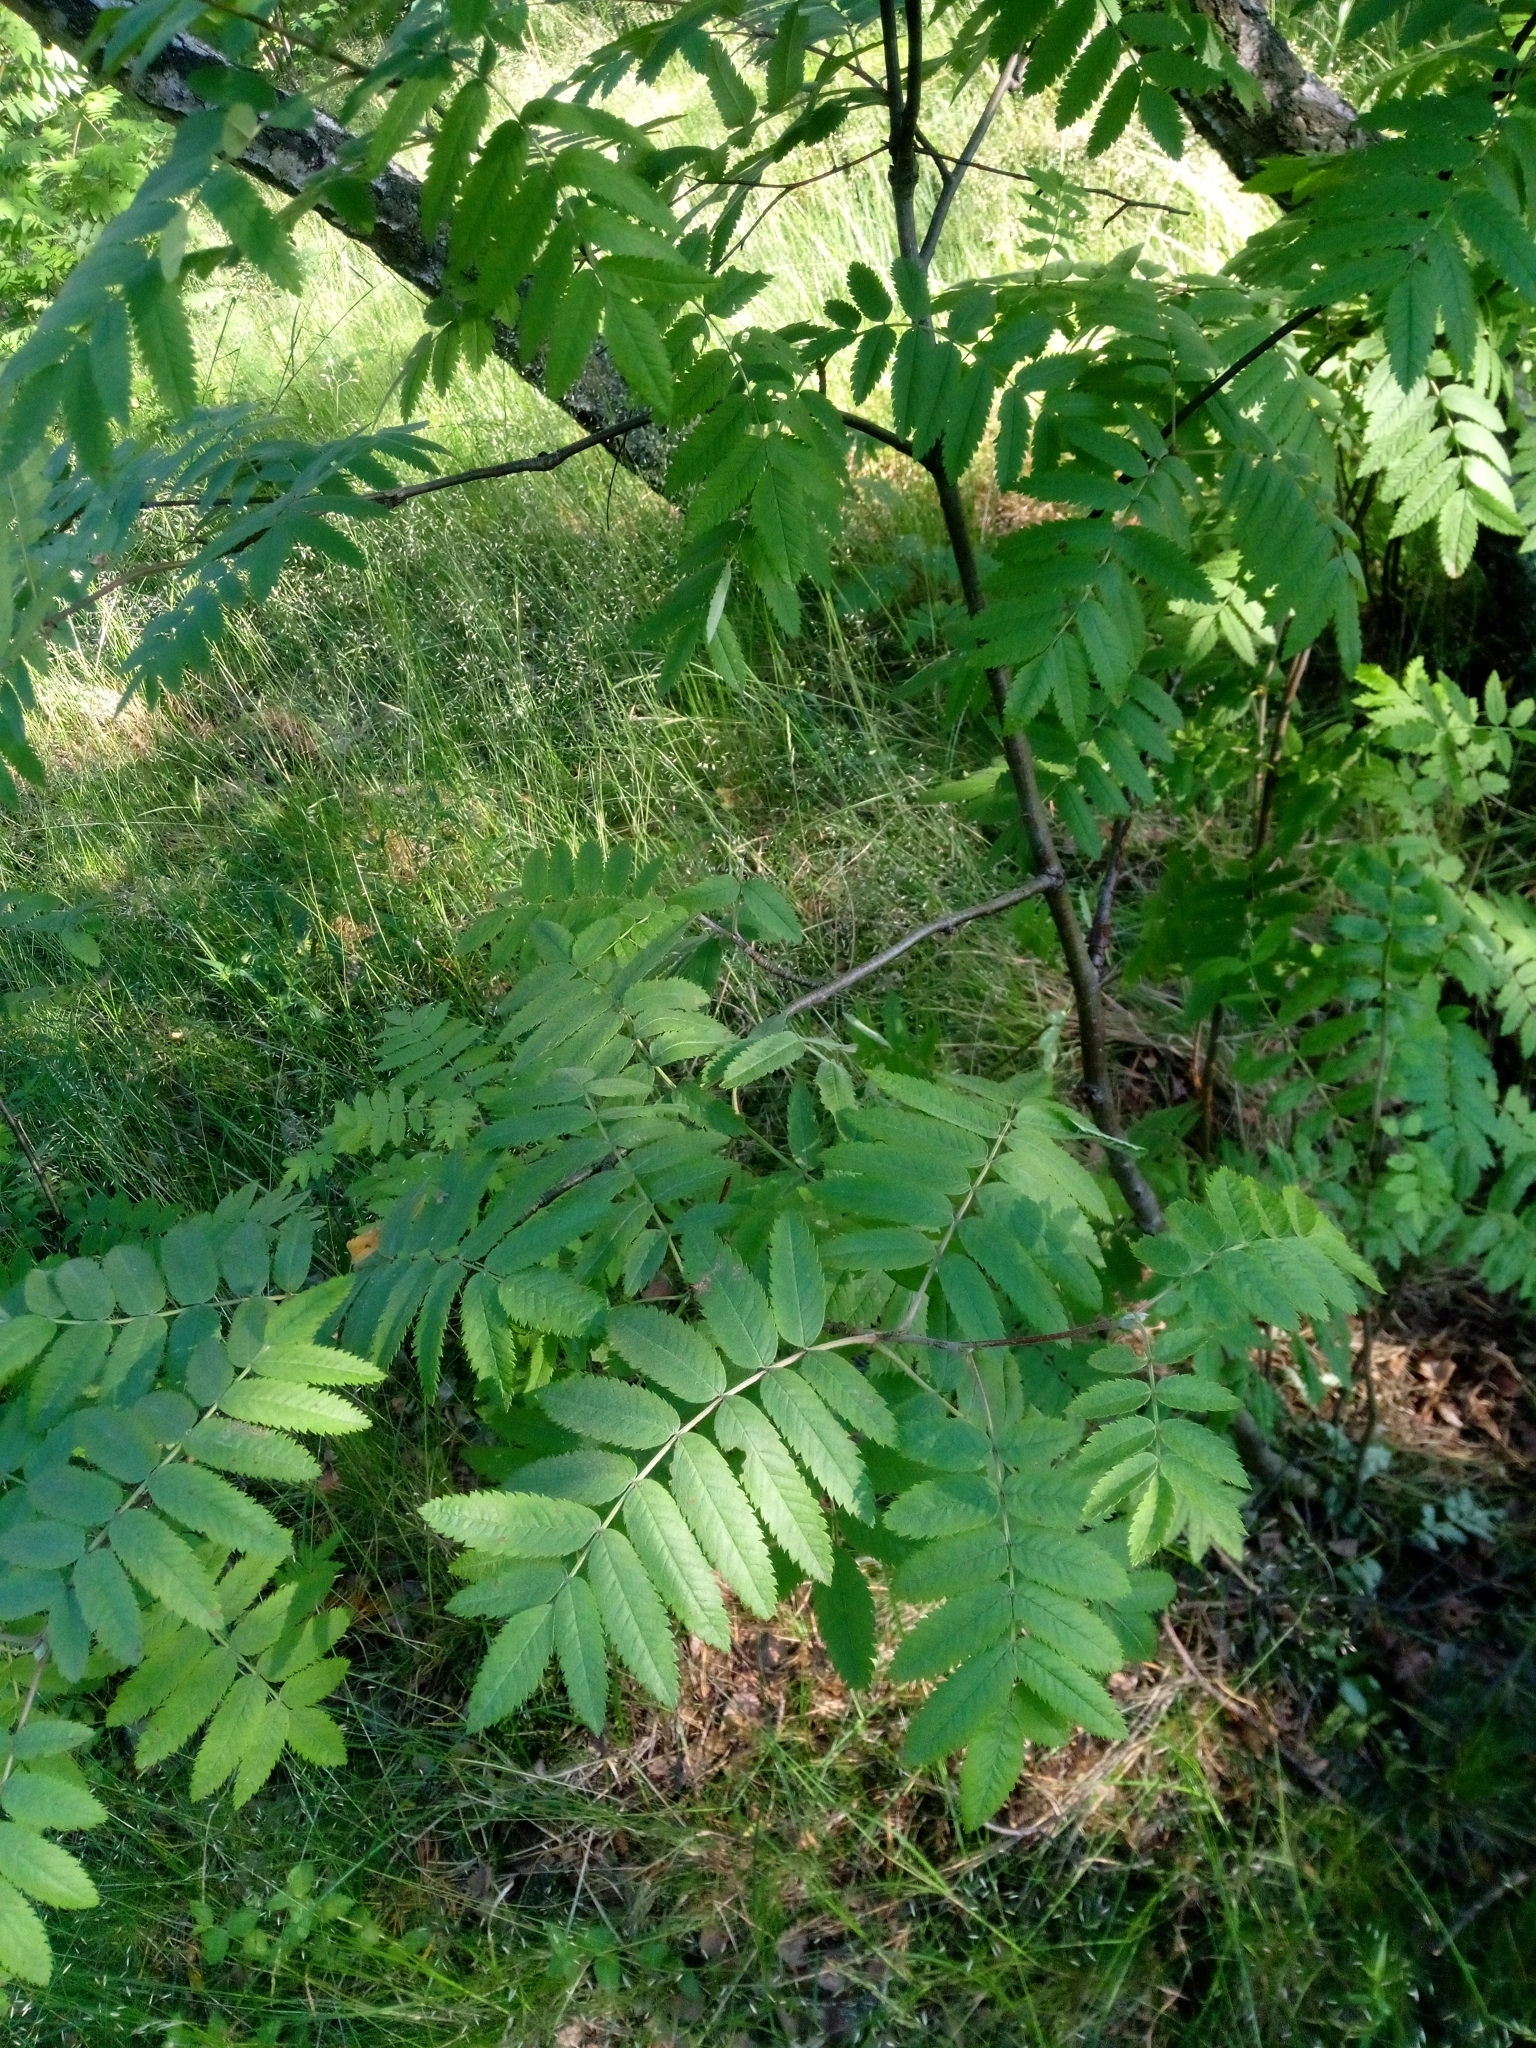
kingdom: Plantae
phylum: Tracheophyta
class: Magnoliopsida
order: Rosales
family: Rosaceae
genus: Sorbus
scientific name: Sorbus aucuparia
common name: Rowan
